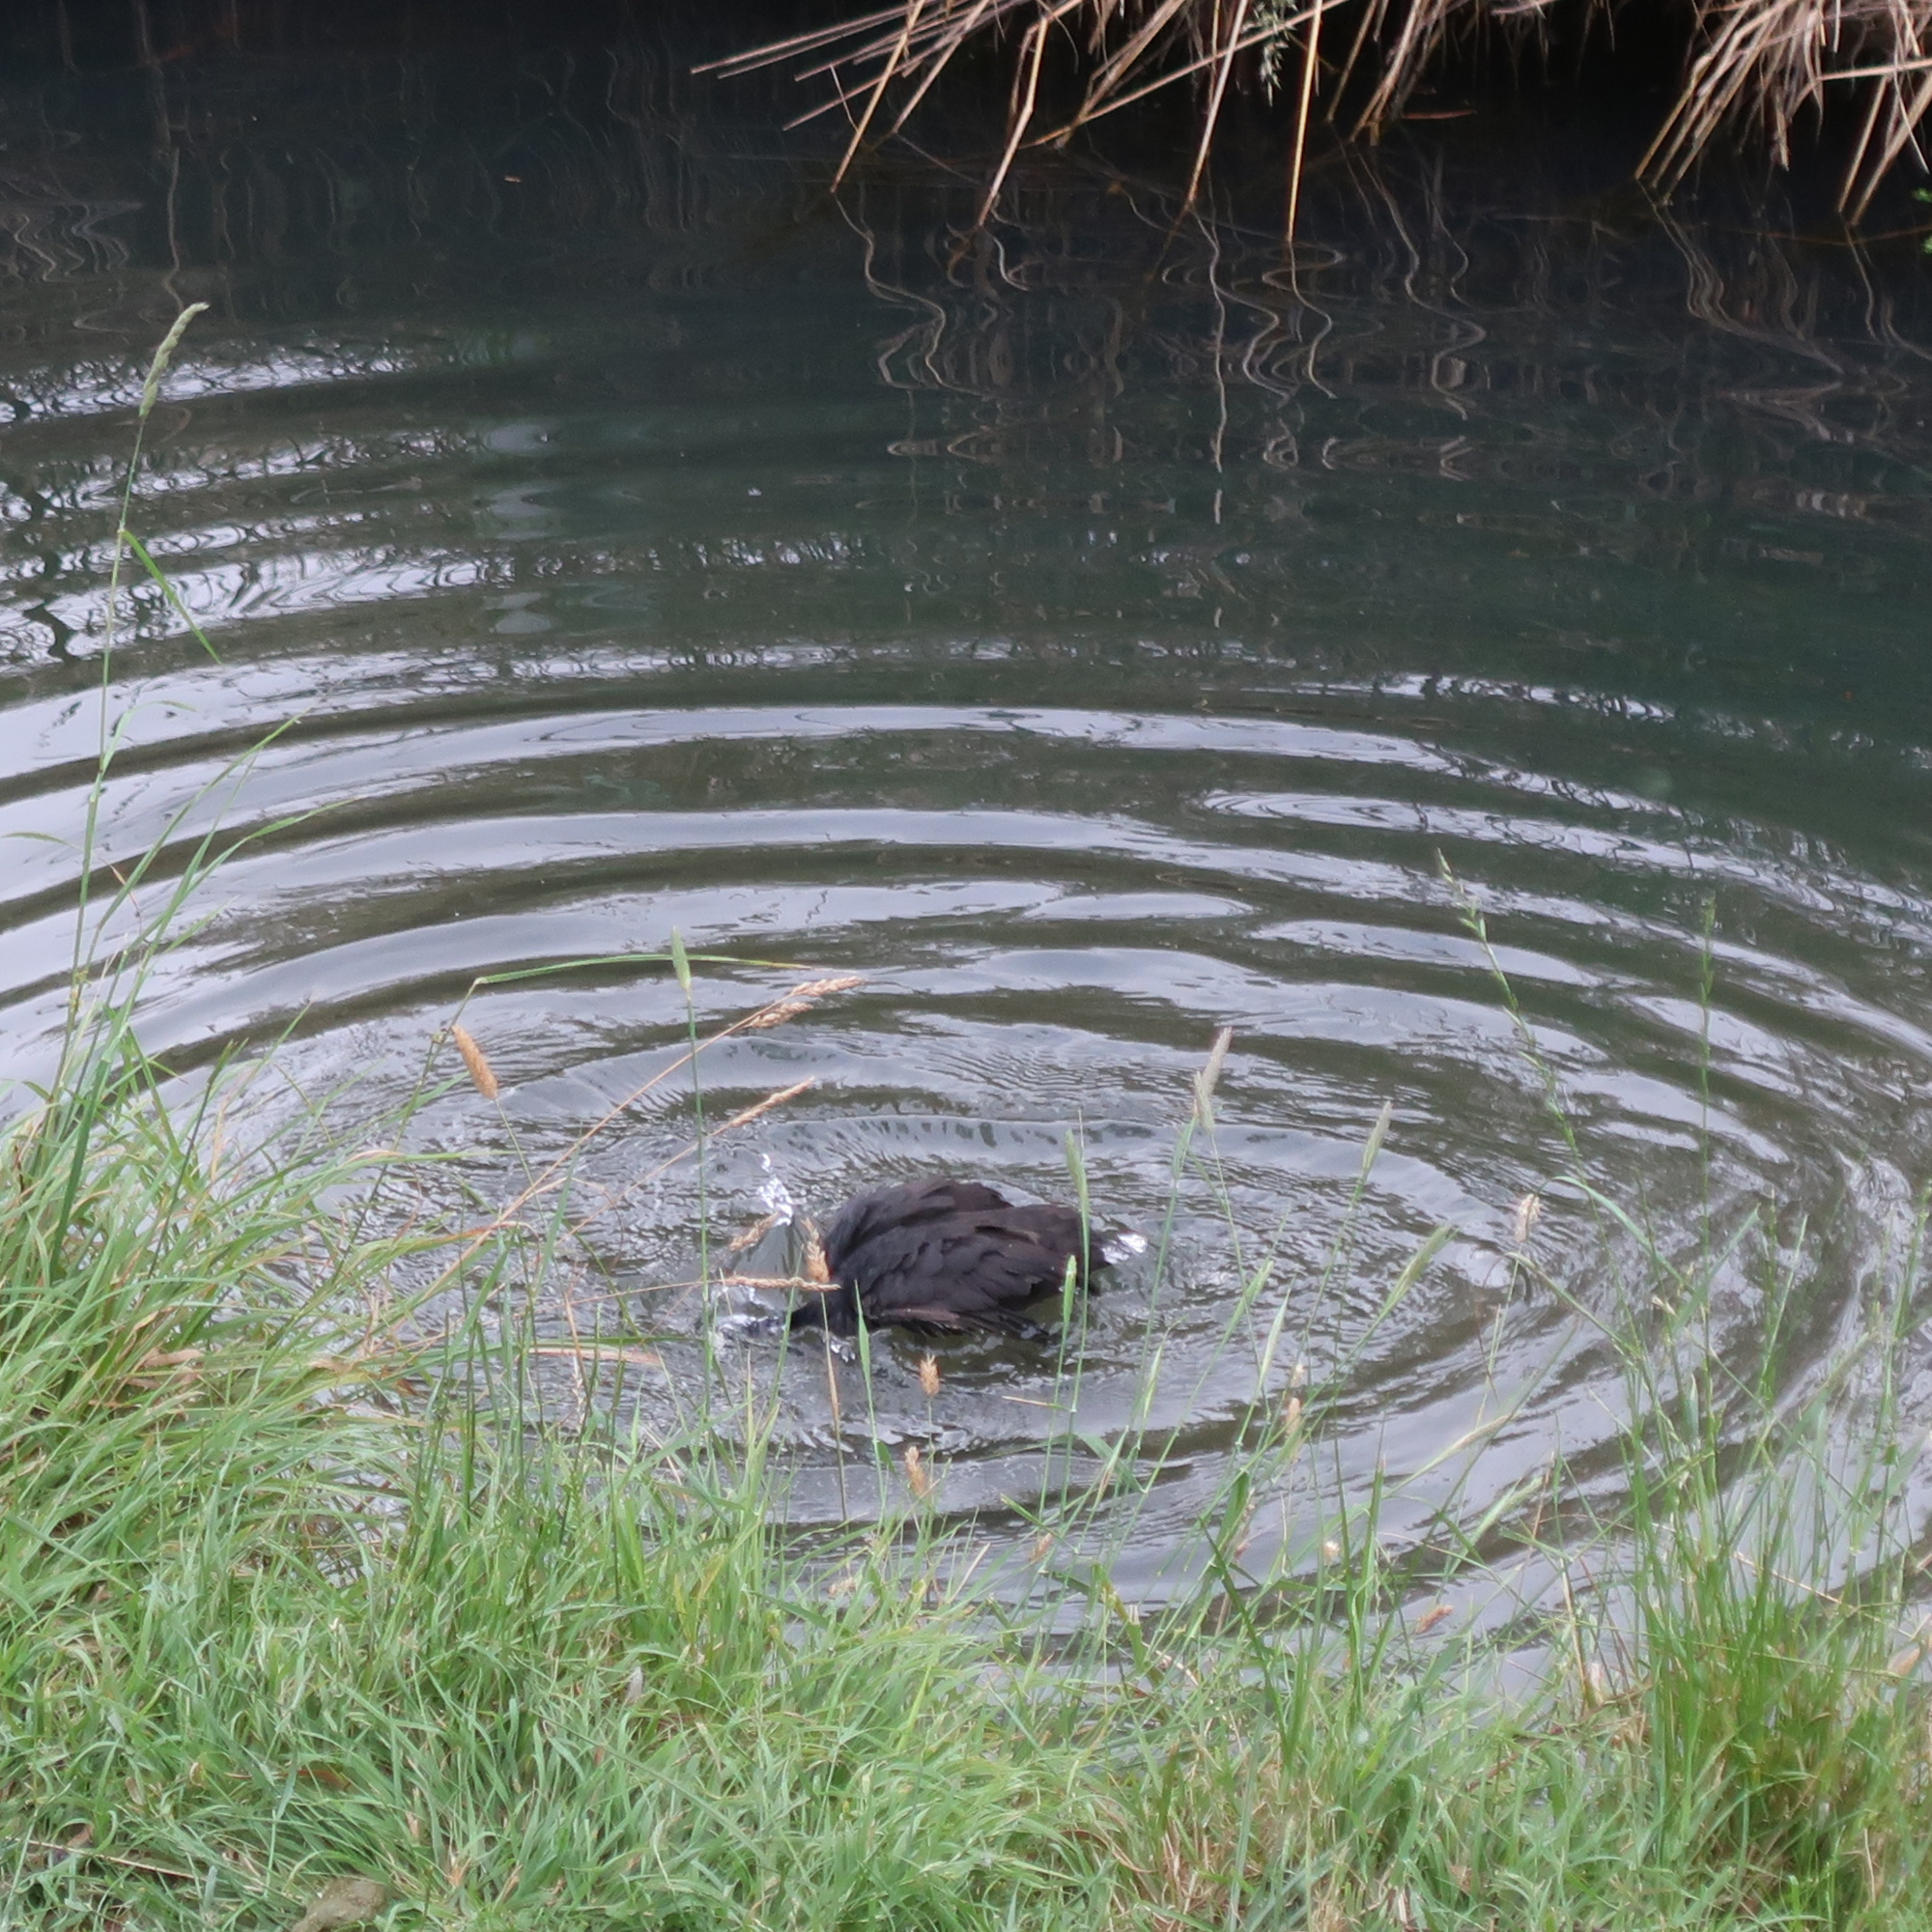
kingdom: Animalia
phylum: Chordata
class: Aves
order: Gruiformes
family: Rallidae
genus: Fulica
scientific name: Fulica atra
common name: Eurasian coot
